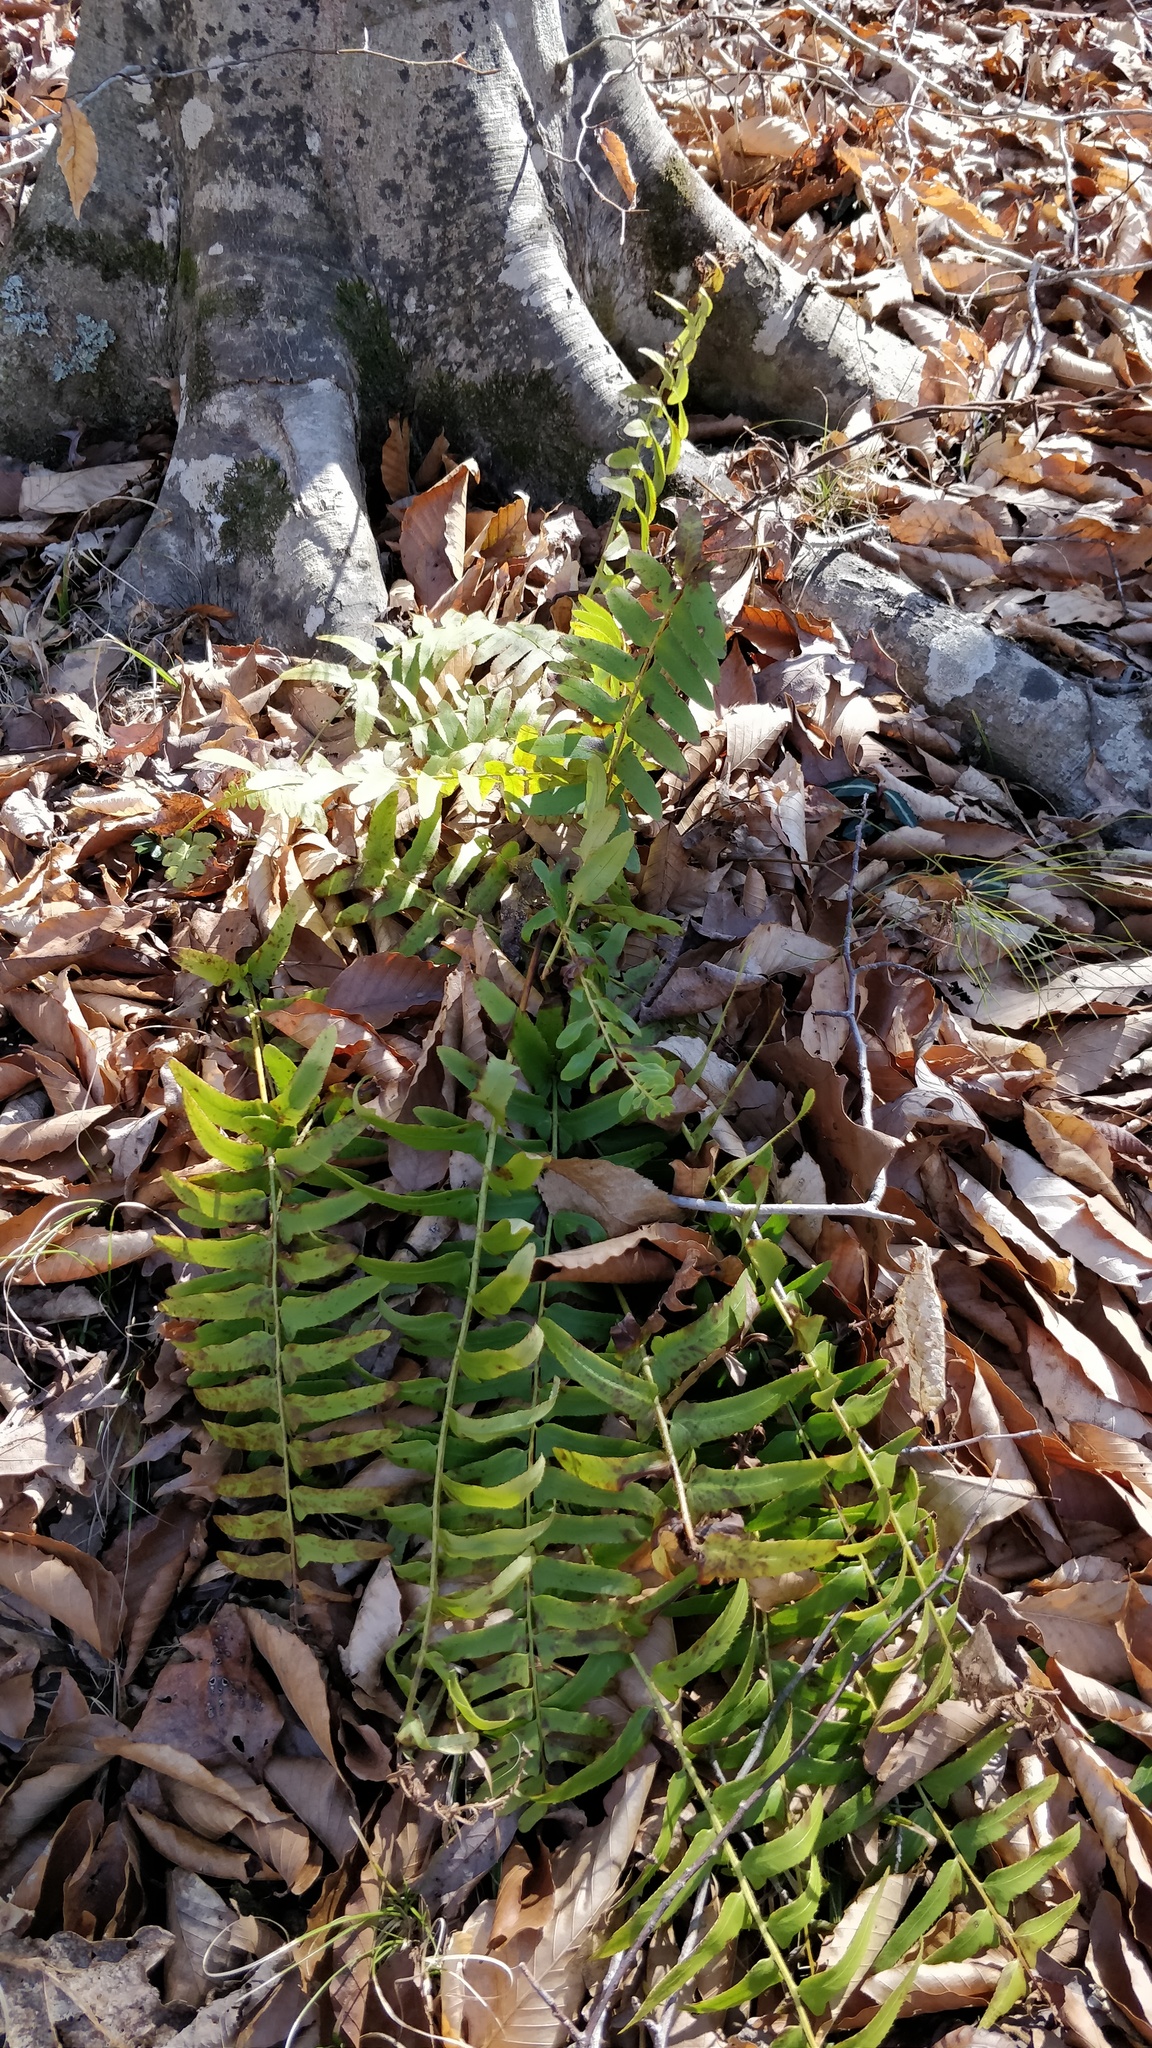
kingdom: Plantae
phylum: Tracheophyta
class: Polypodiopsida
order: Polypodiales
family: Dryopteridaceae
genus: Polystichum
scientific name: Polystichum acrostichoides
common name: Christmas fern
